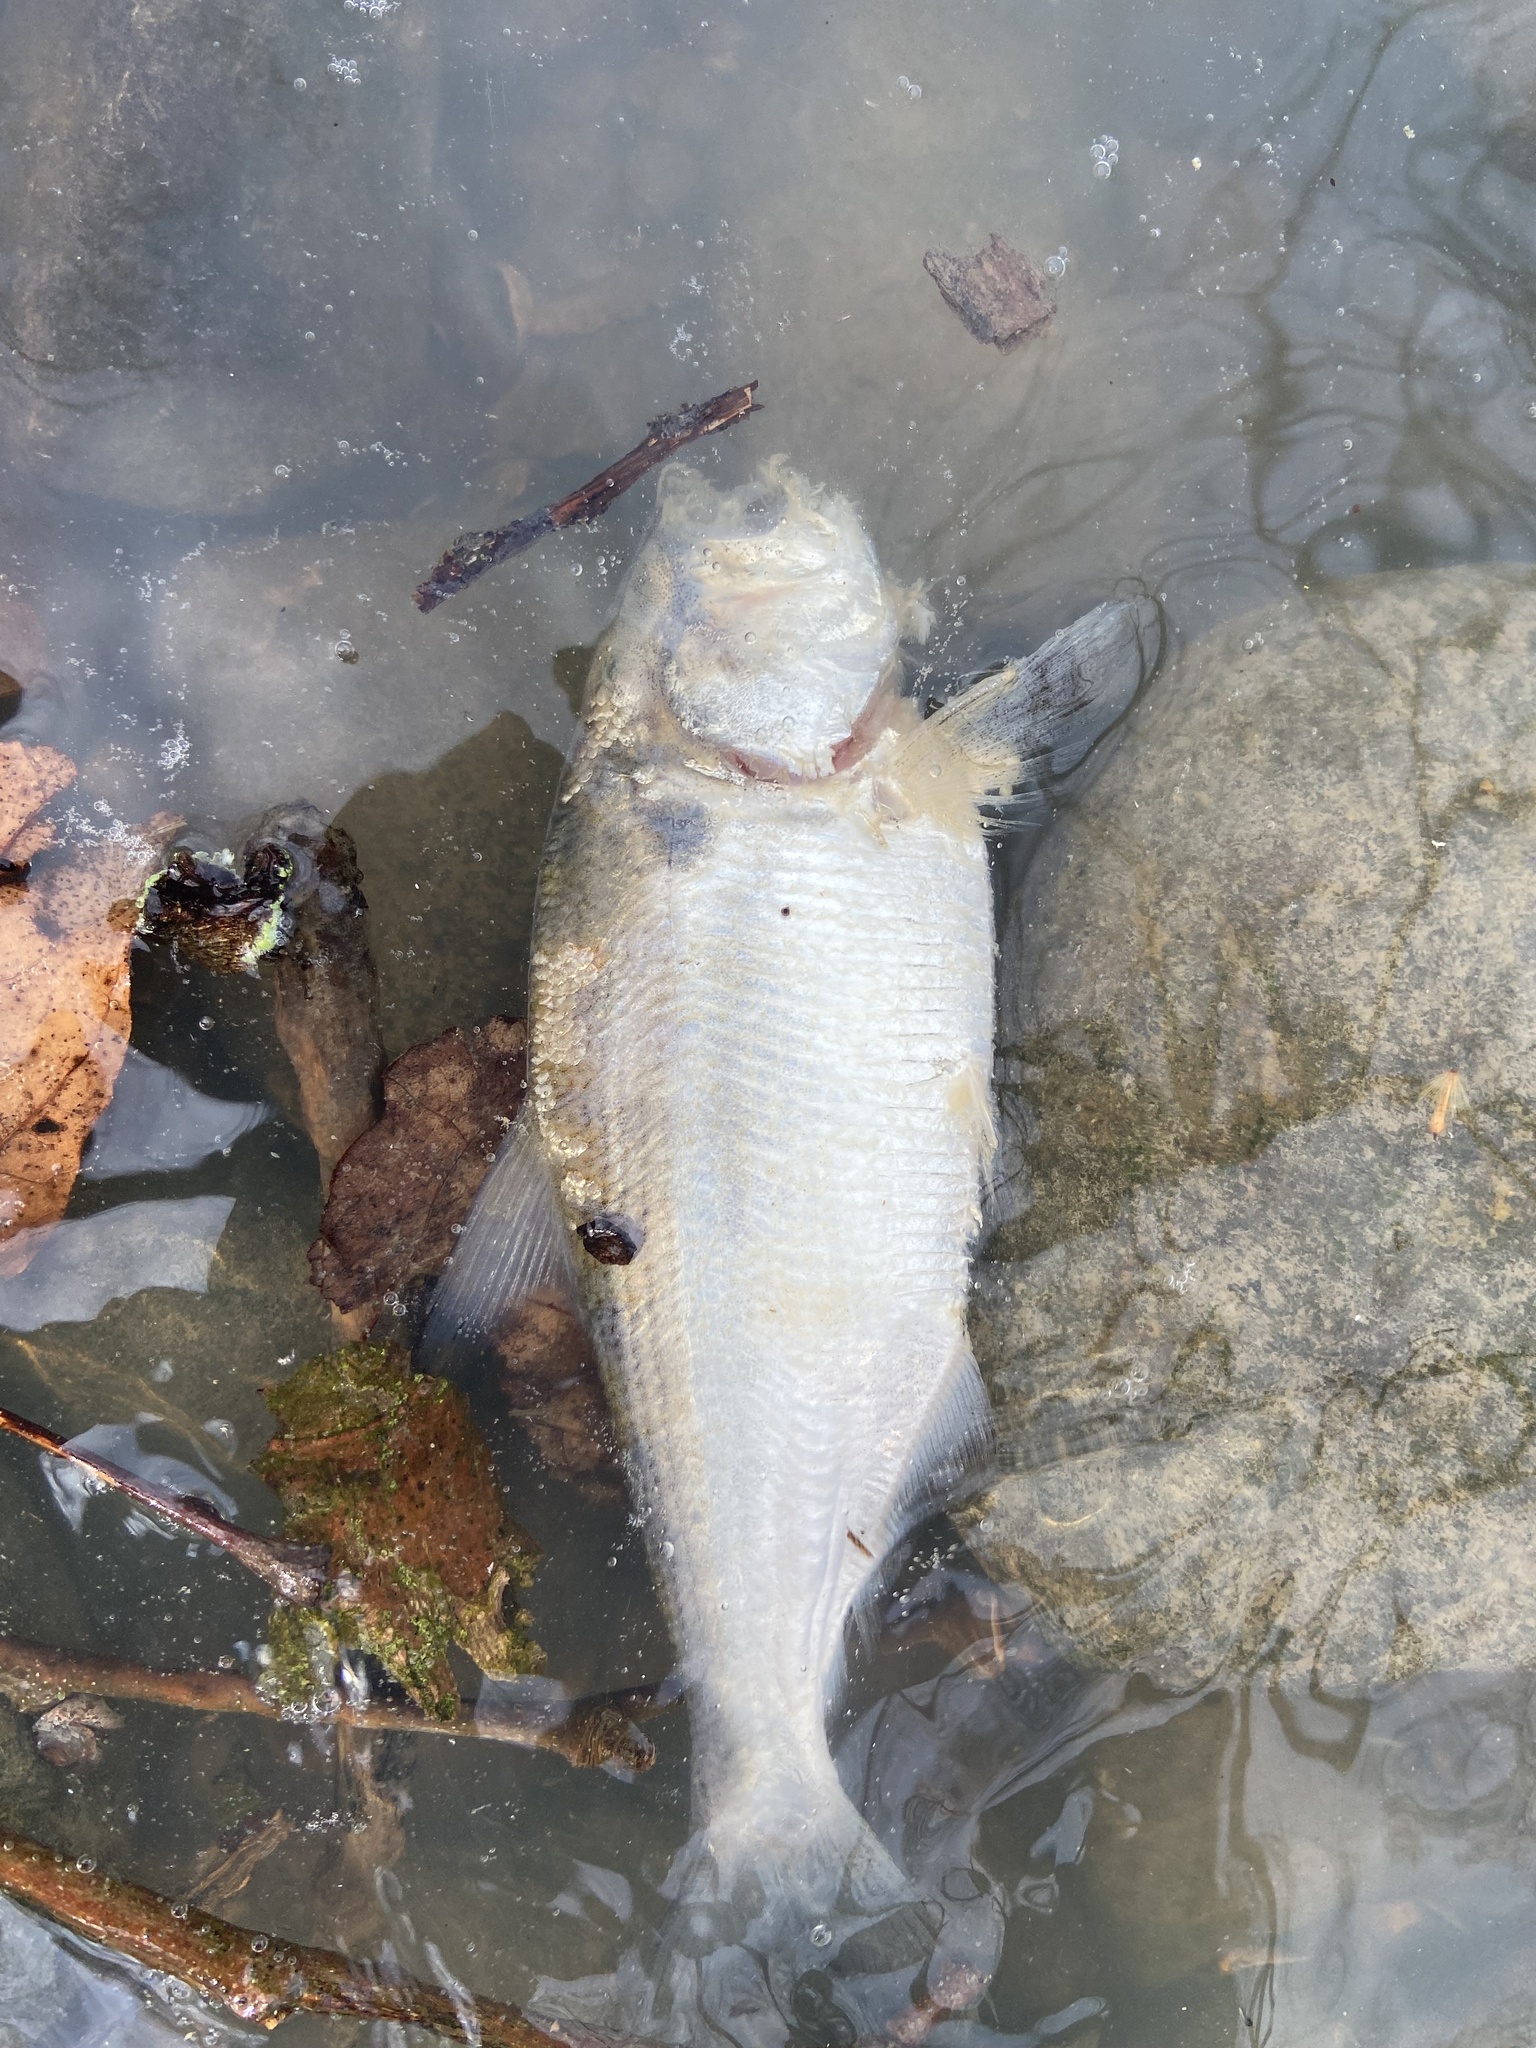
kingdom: Animalia
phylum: Chordata
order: Clupeiformes
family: Clupeidae
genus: Dorosoma
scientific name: Dorosoma cepedianum
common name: Gizzard shad
